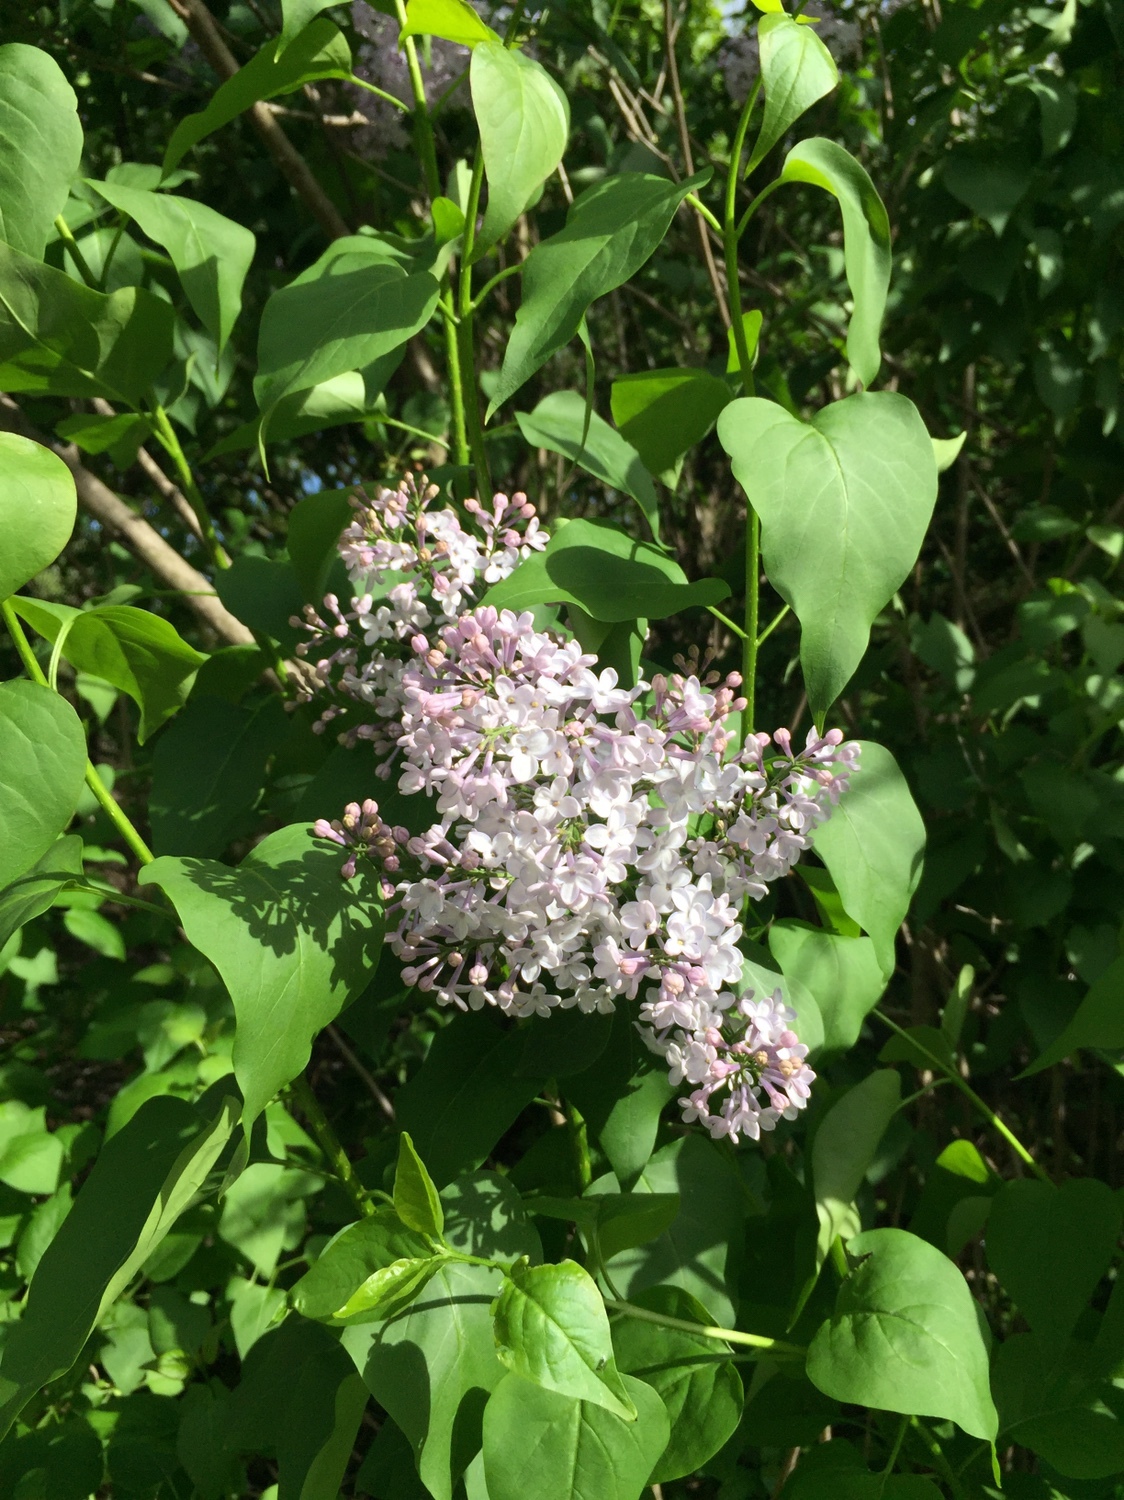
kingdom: Plantae
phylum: Tracheophyta
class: Magnoliopsida
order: Lamiales
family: Oleaceae
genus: Syringa
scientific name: Syringa vulgaris
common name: Common lilac
